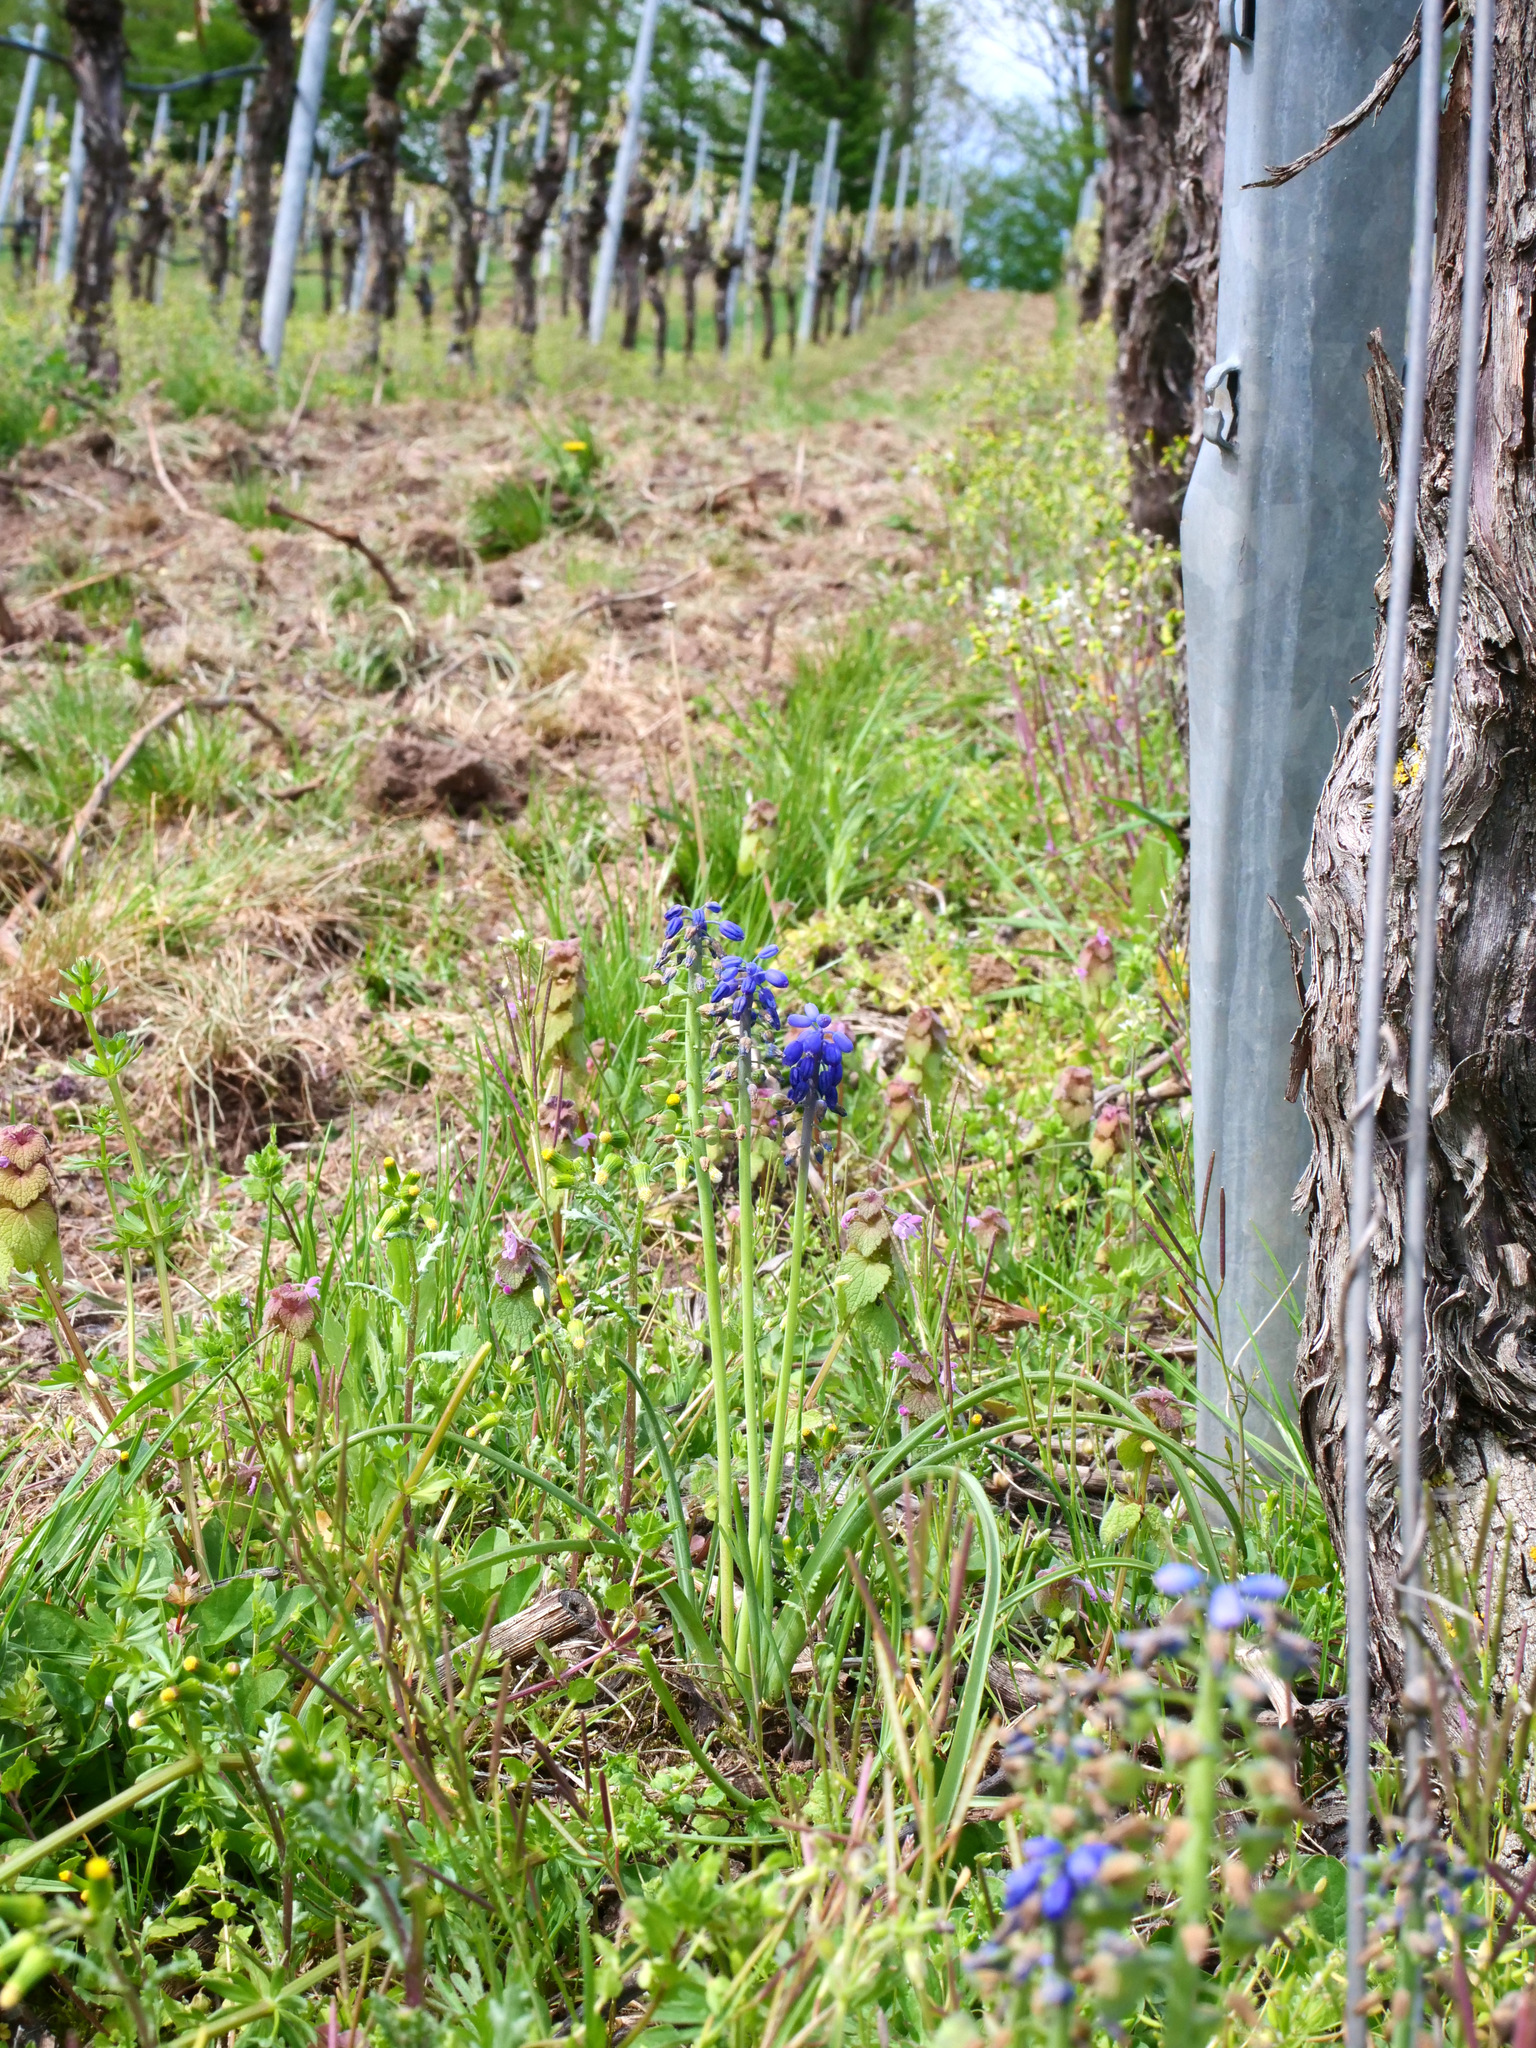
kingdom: Plantae
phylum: Tracheophyta
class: Liliopsida
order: Asparagales
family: Asparagaceae
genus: Muscari
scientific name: Muscari neglectum
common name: Grape-hyacinth
